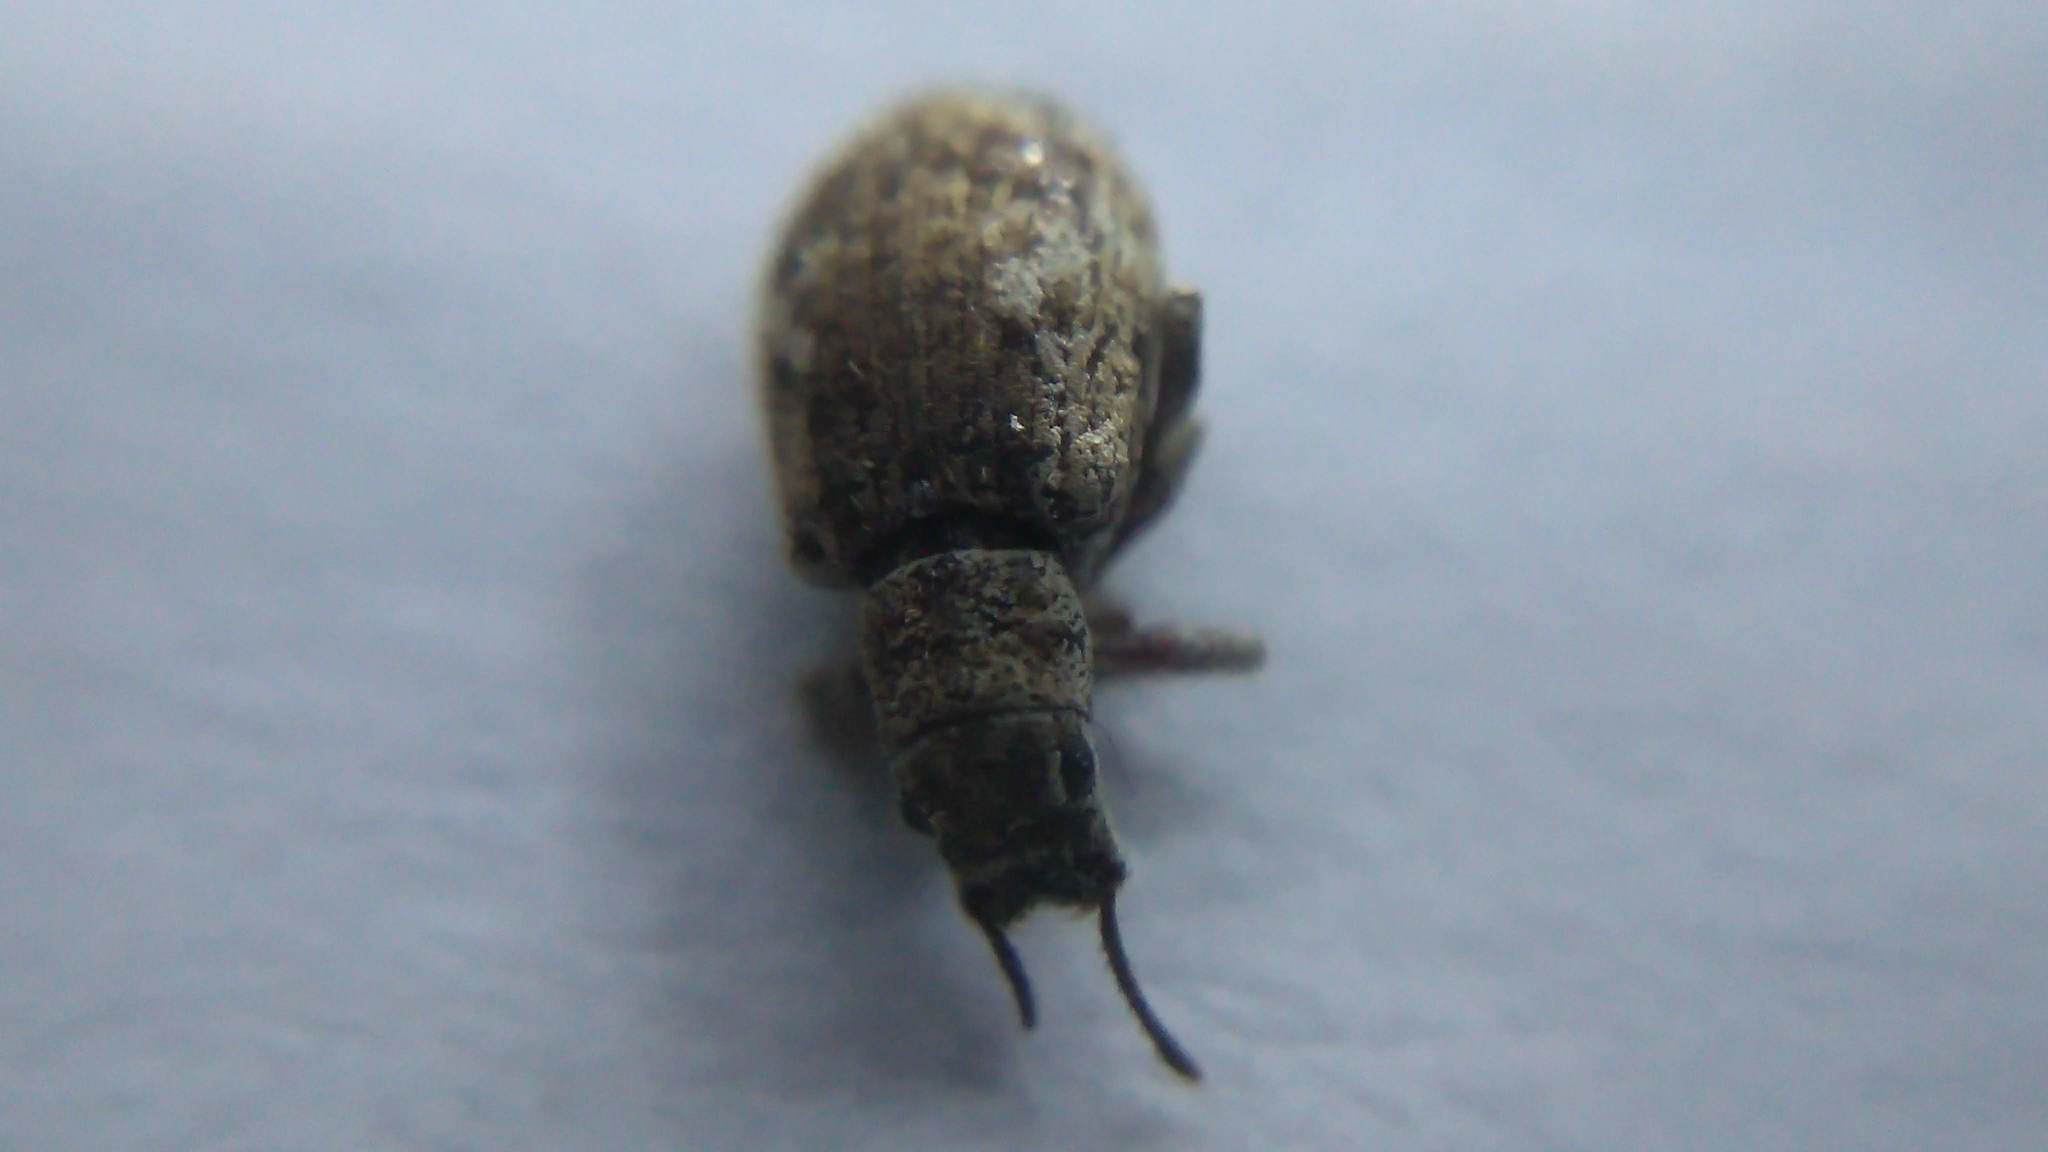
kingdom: Animalia
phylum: Arthropoda
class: Insecta
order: Coleoptera
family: Curculionidae
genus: Pseudoedophrys
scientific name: Pseudoedophrys hilleri
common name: Weevil
